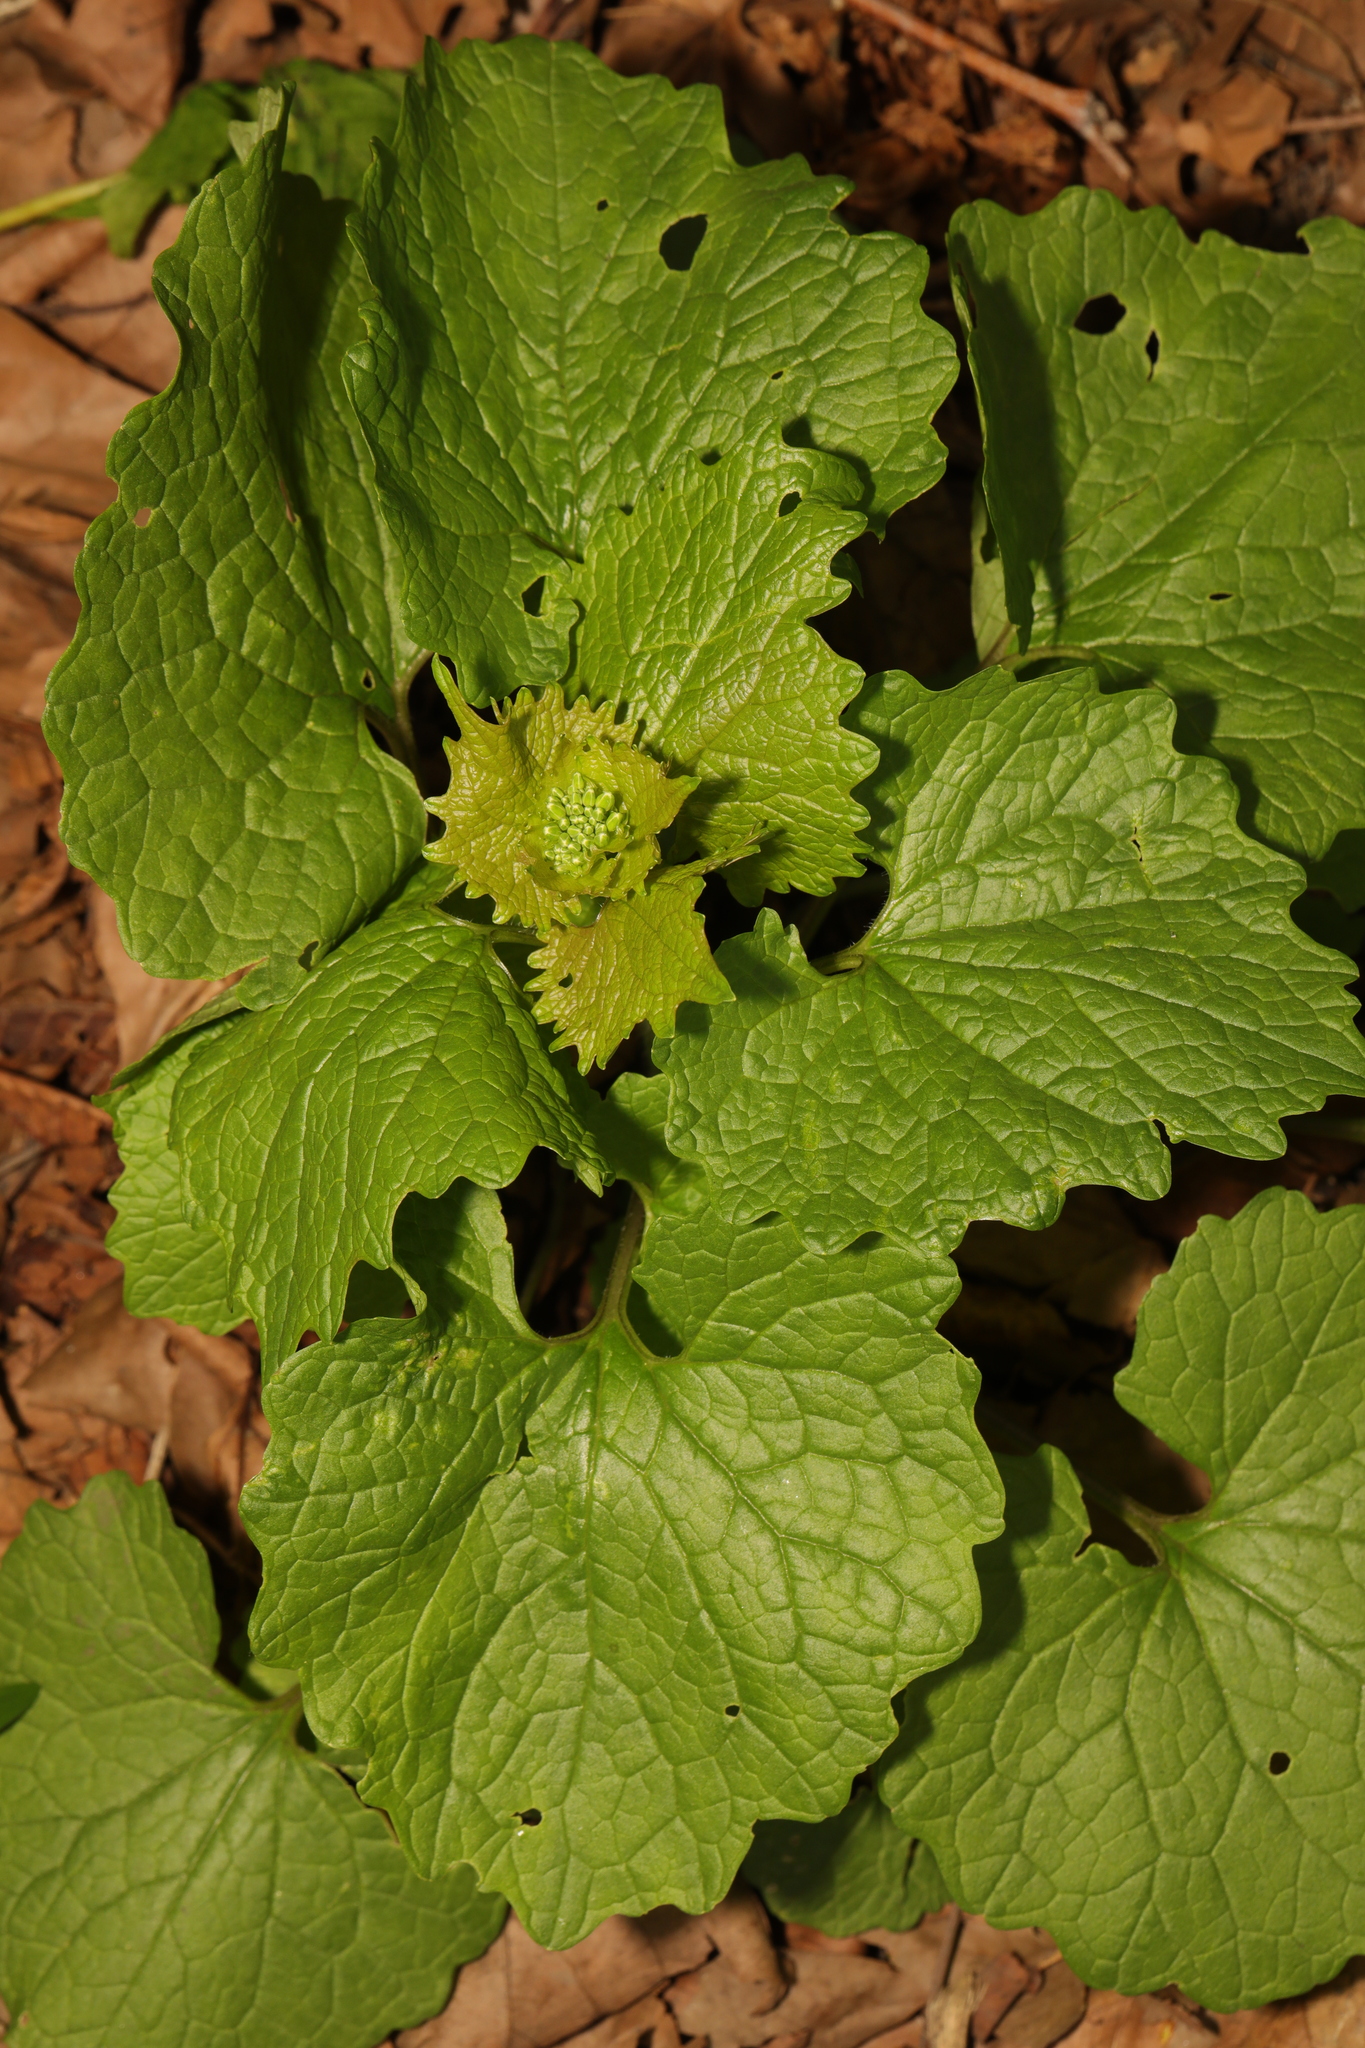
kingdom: Plantae
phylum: Tracheophyta
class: Magnoliopsida
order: Brassicales
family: Brassicaceae
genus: Alliaria
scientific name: Alliaria petiolata
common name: Garlic mustard
